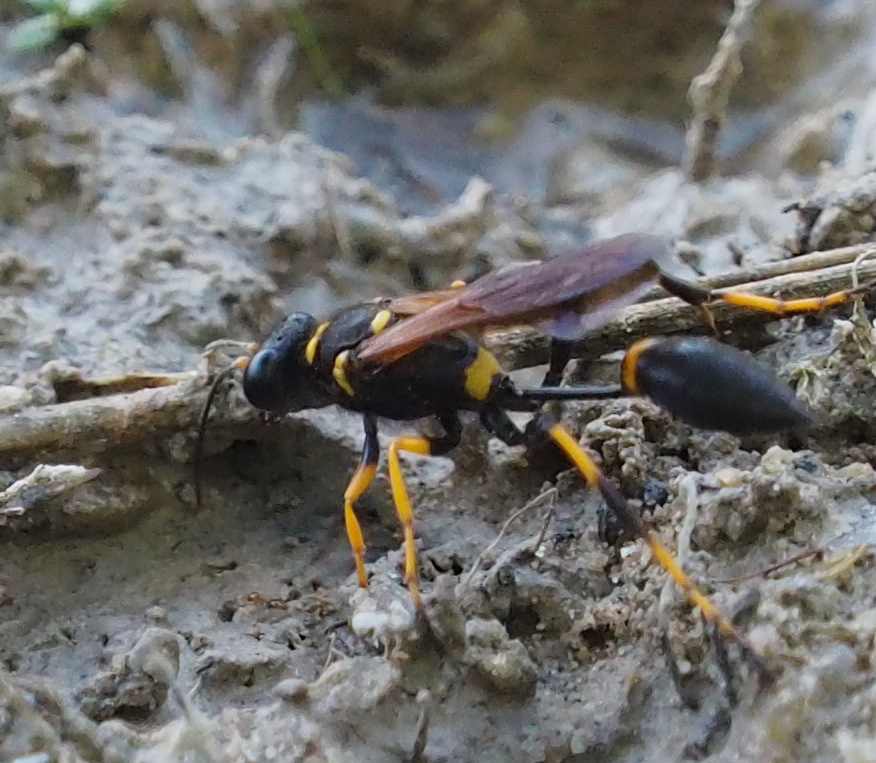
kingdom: Animalia
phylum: Arthropoda
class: Insecta
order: Hymenoptera
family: Sphecidae
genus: Sceliphron
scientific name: Sceliphron caementarium
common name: Mud dauber
